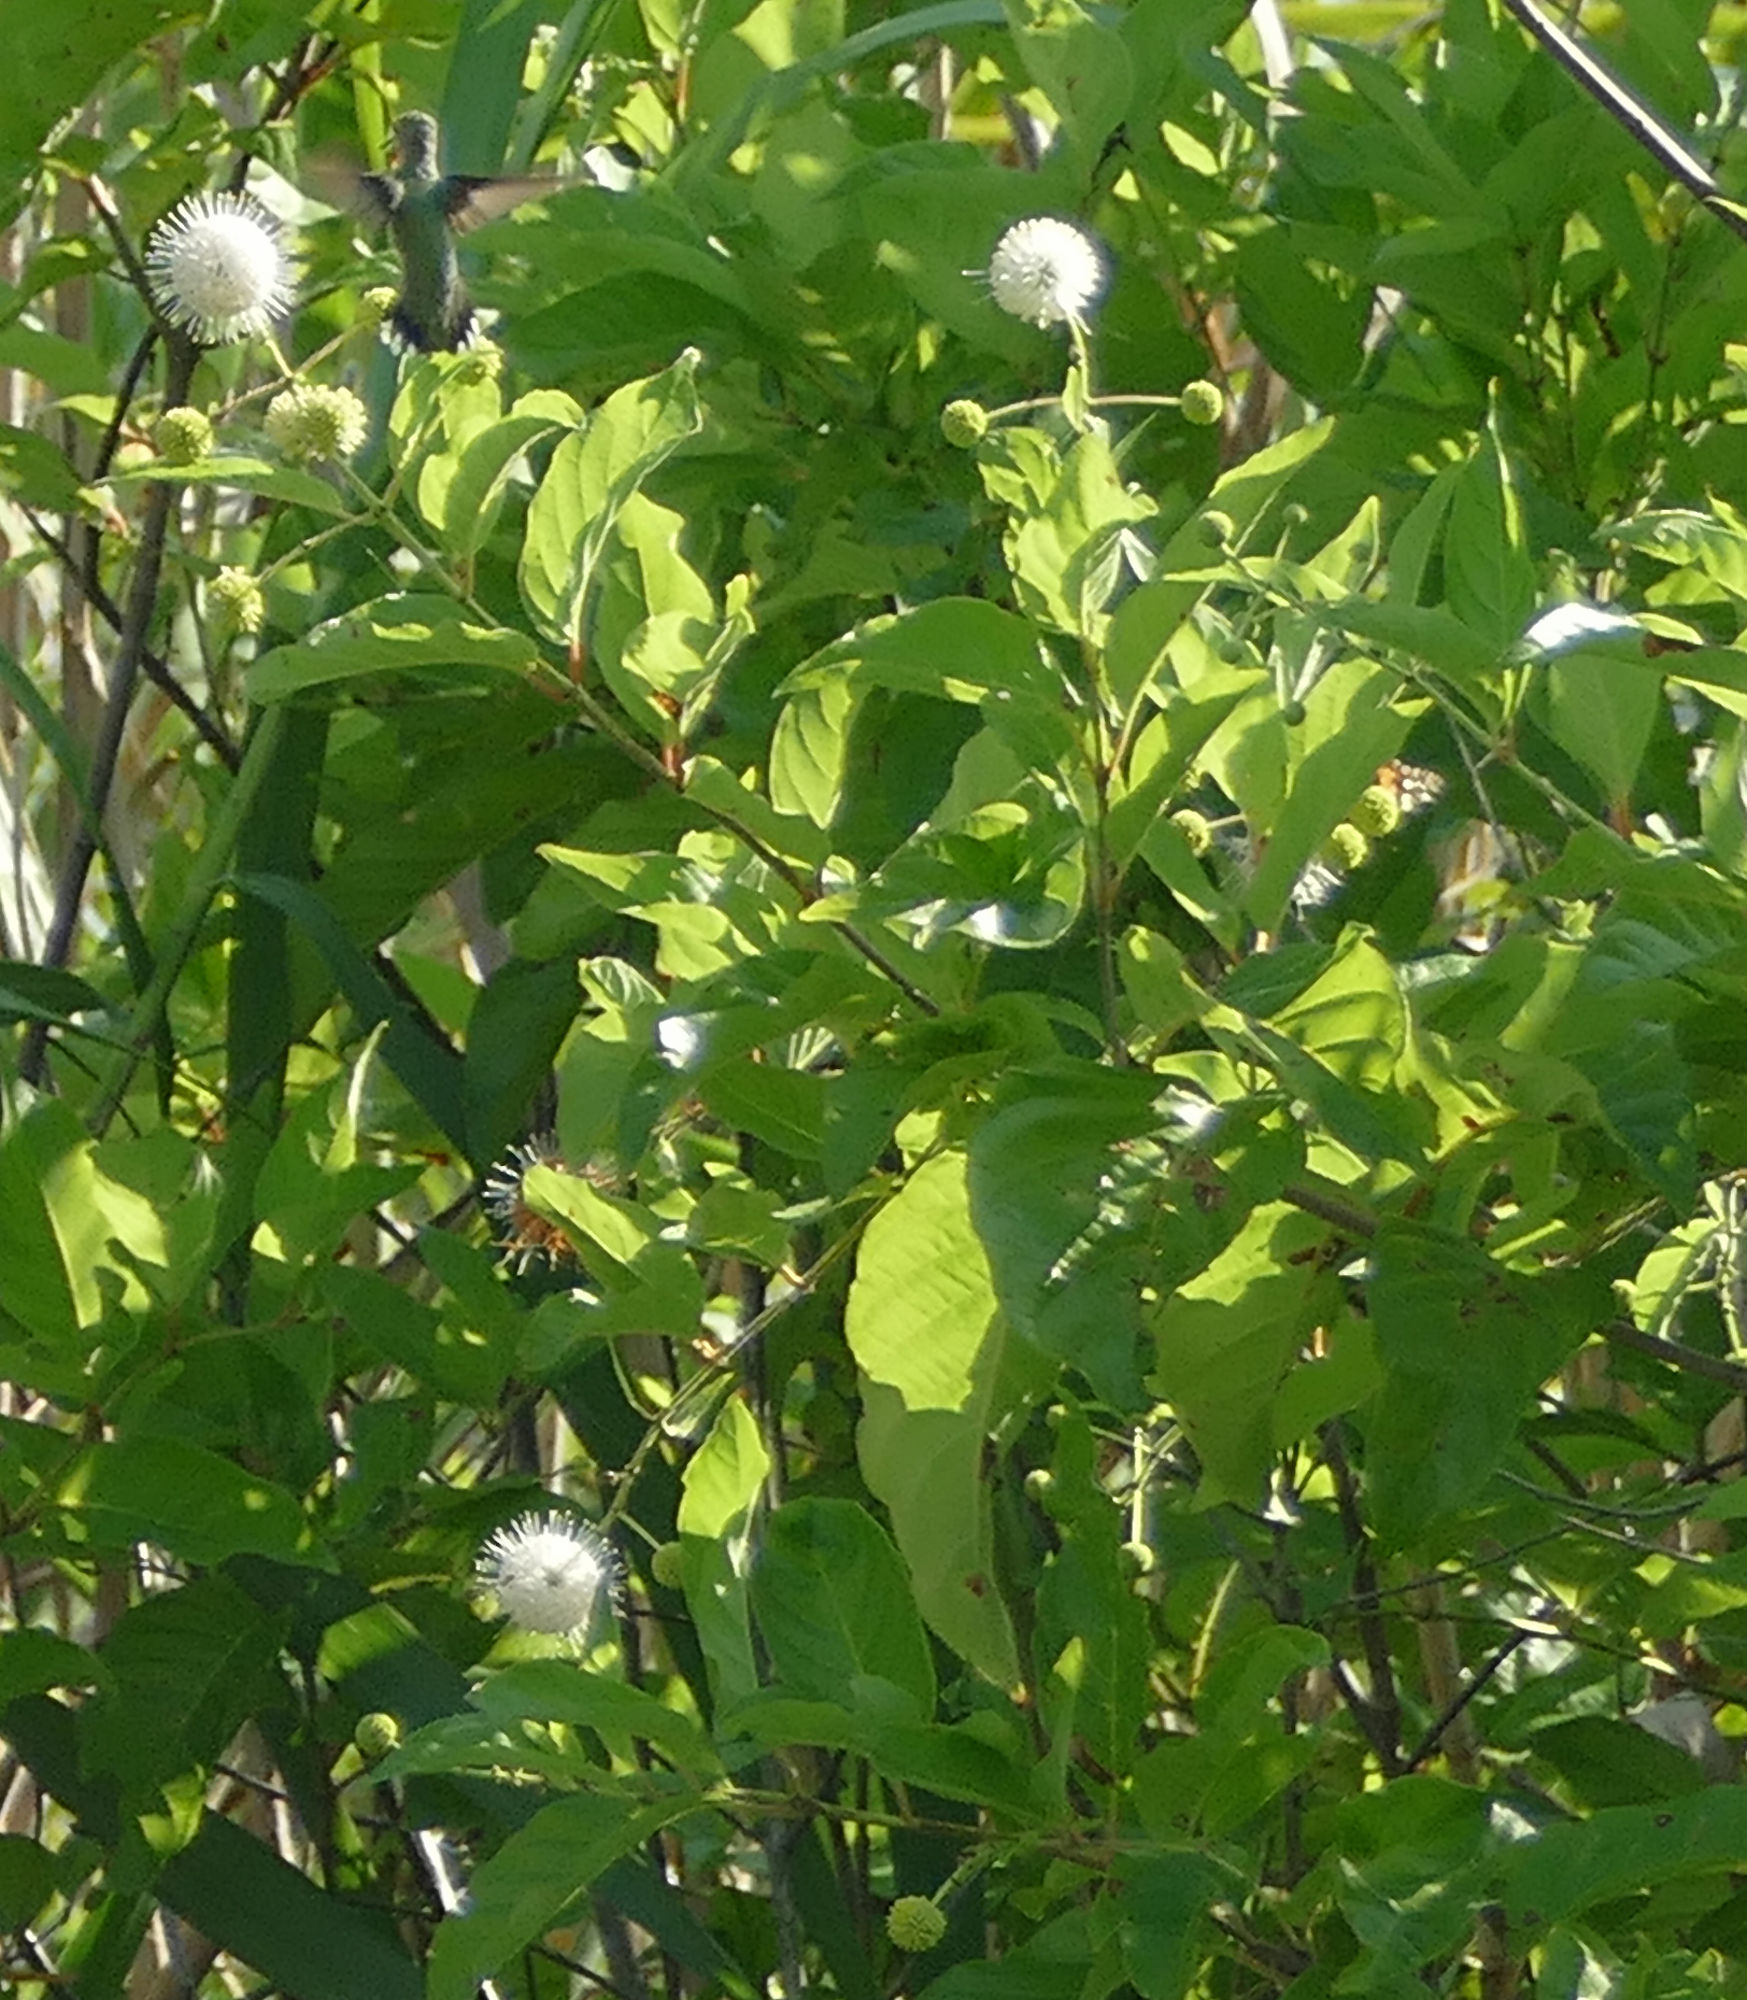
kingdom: Plantae
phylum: Tracheophyta
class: Magnoliopsida
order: Gentianales
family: Rubiaceae
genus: Cephalanthus
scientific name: Cephalanthus occidentalis
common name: Button-willow
